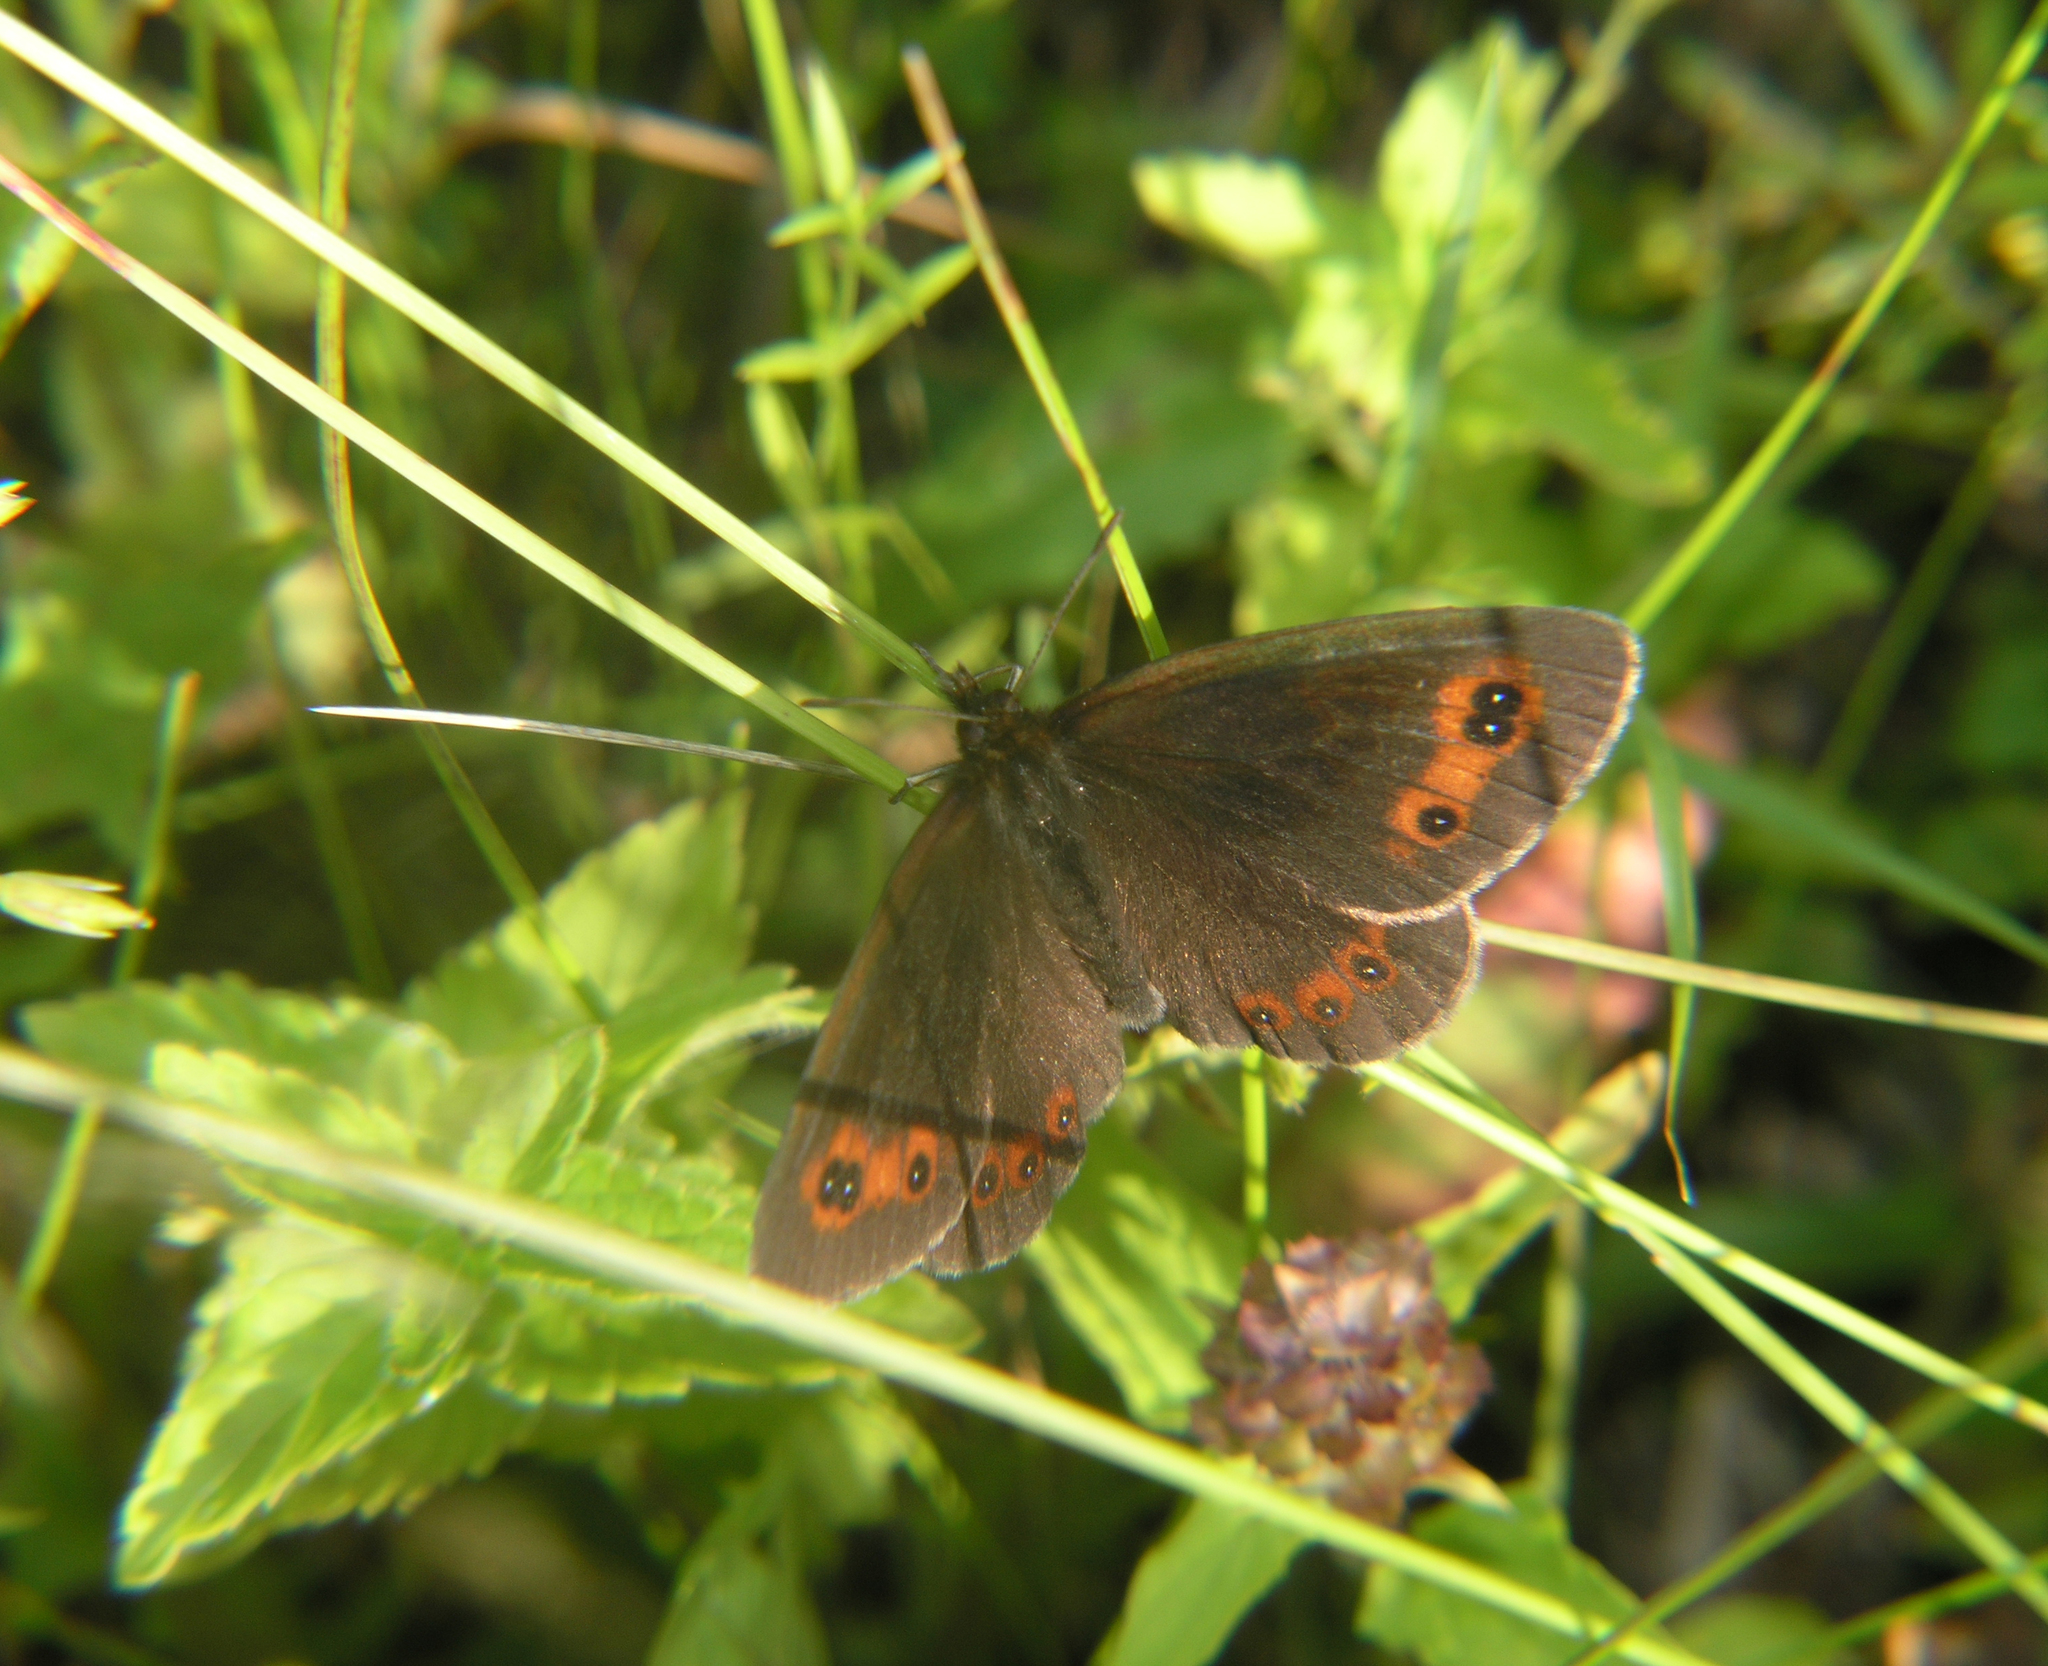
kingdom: Animalia
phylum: Arthropoda
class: Insecta
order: Lepidoptera
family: Nymphalidae
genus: Erebia
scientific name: Erebia aethiops
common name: Scotch argus
